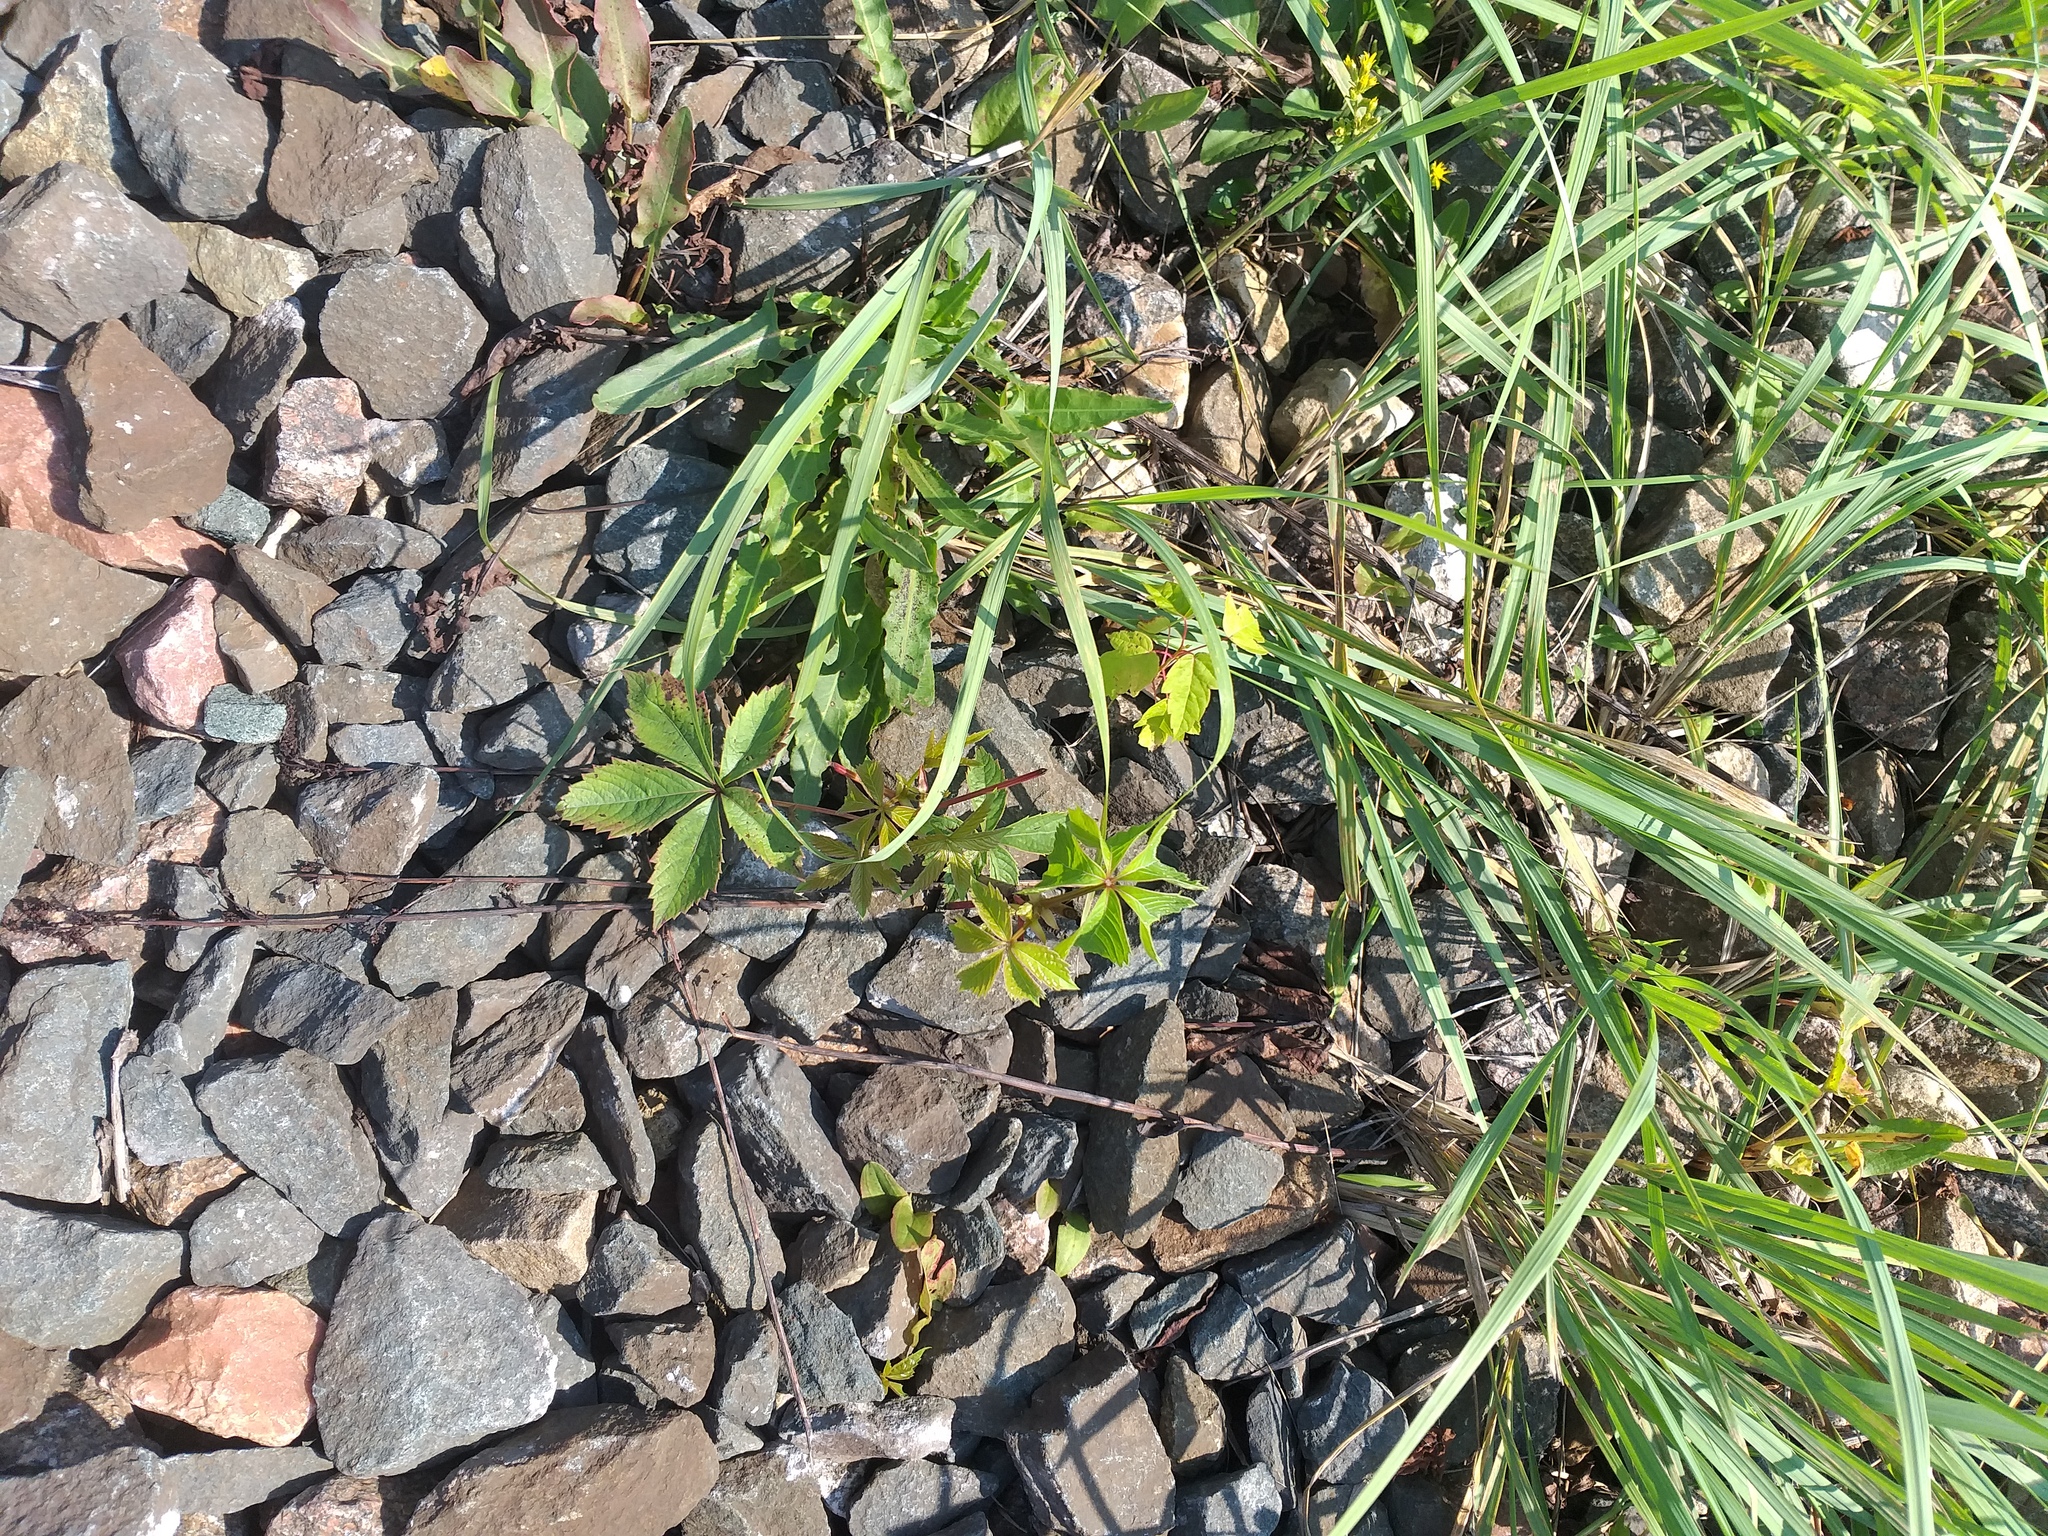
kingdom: Plantae
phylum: Tracheophyta
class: Magnoliopsida
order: Vitales
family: Vitaceae
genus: Parthenocissus
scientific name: Parthenocissus inserta
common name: False virginia-creeper
